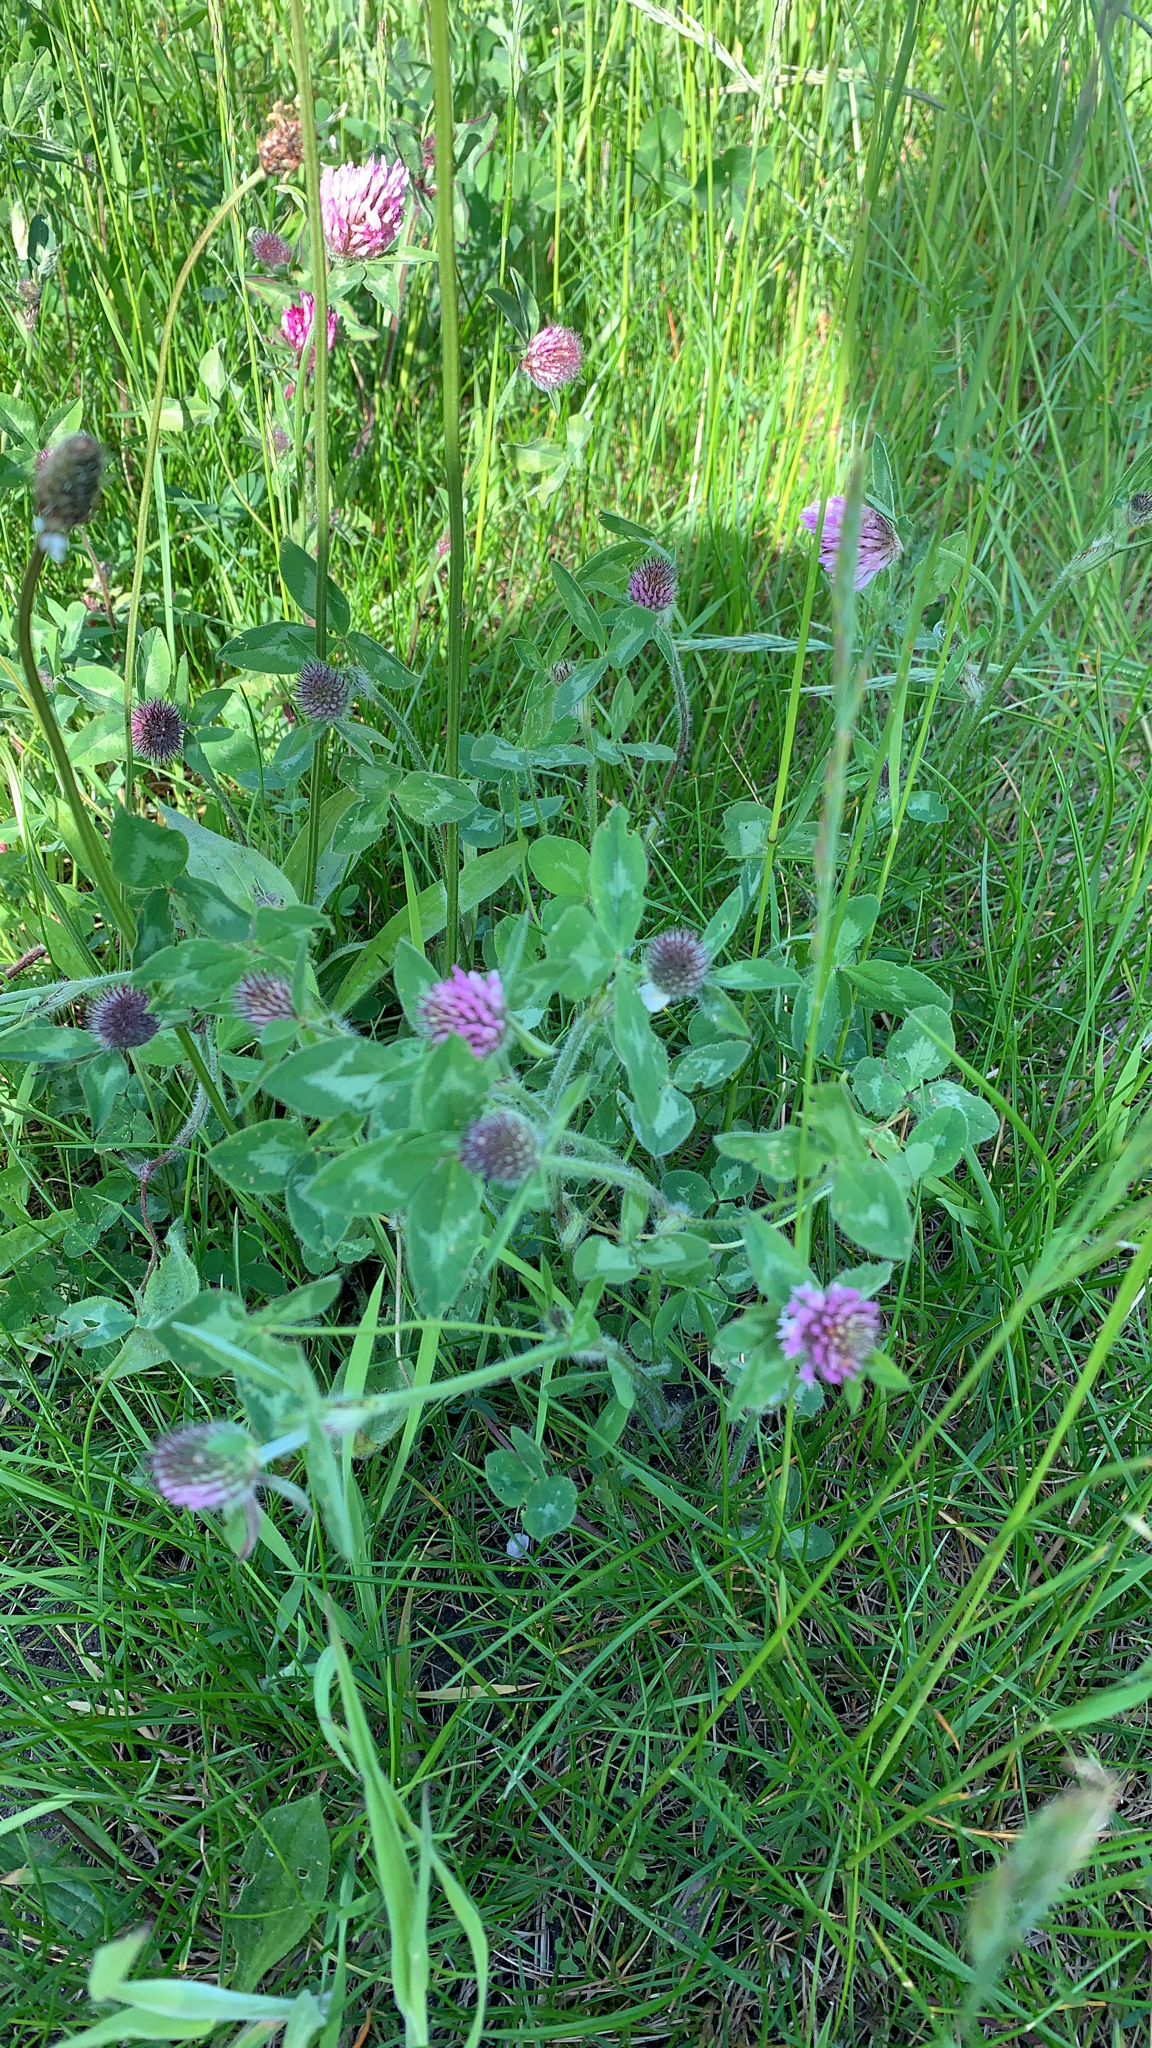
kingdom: Plantae
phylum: Tracheophyta
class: Magnoliopsida
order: Fabales
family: Fabaceae
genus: Trifolium
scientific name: Trifolium pratense
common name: Red clover
